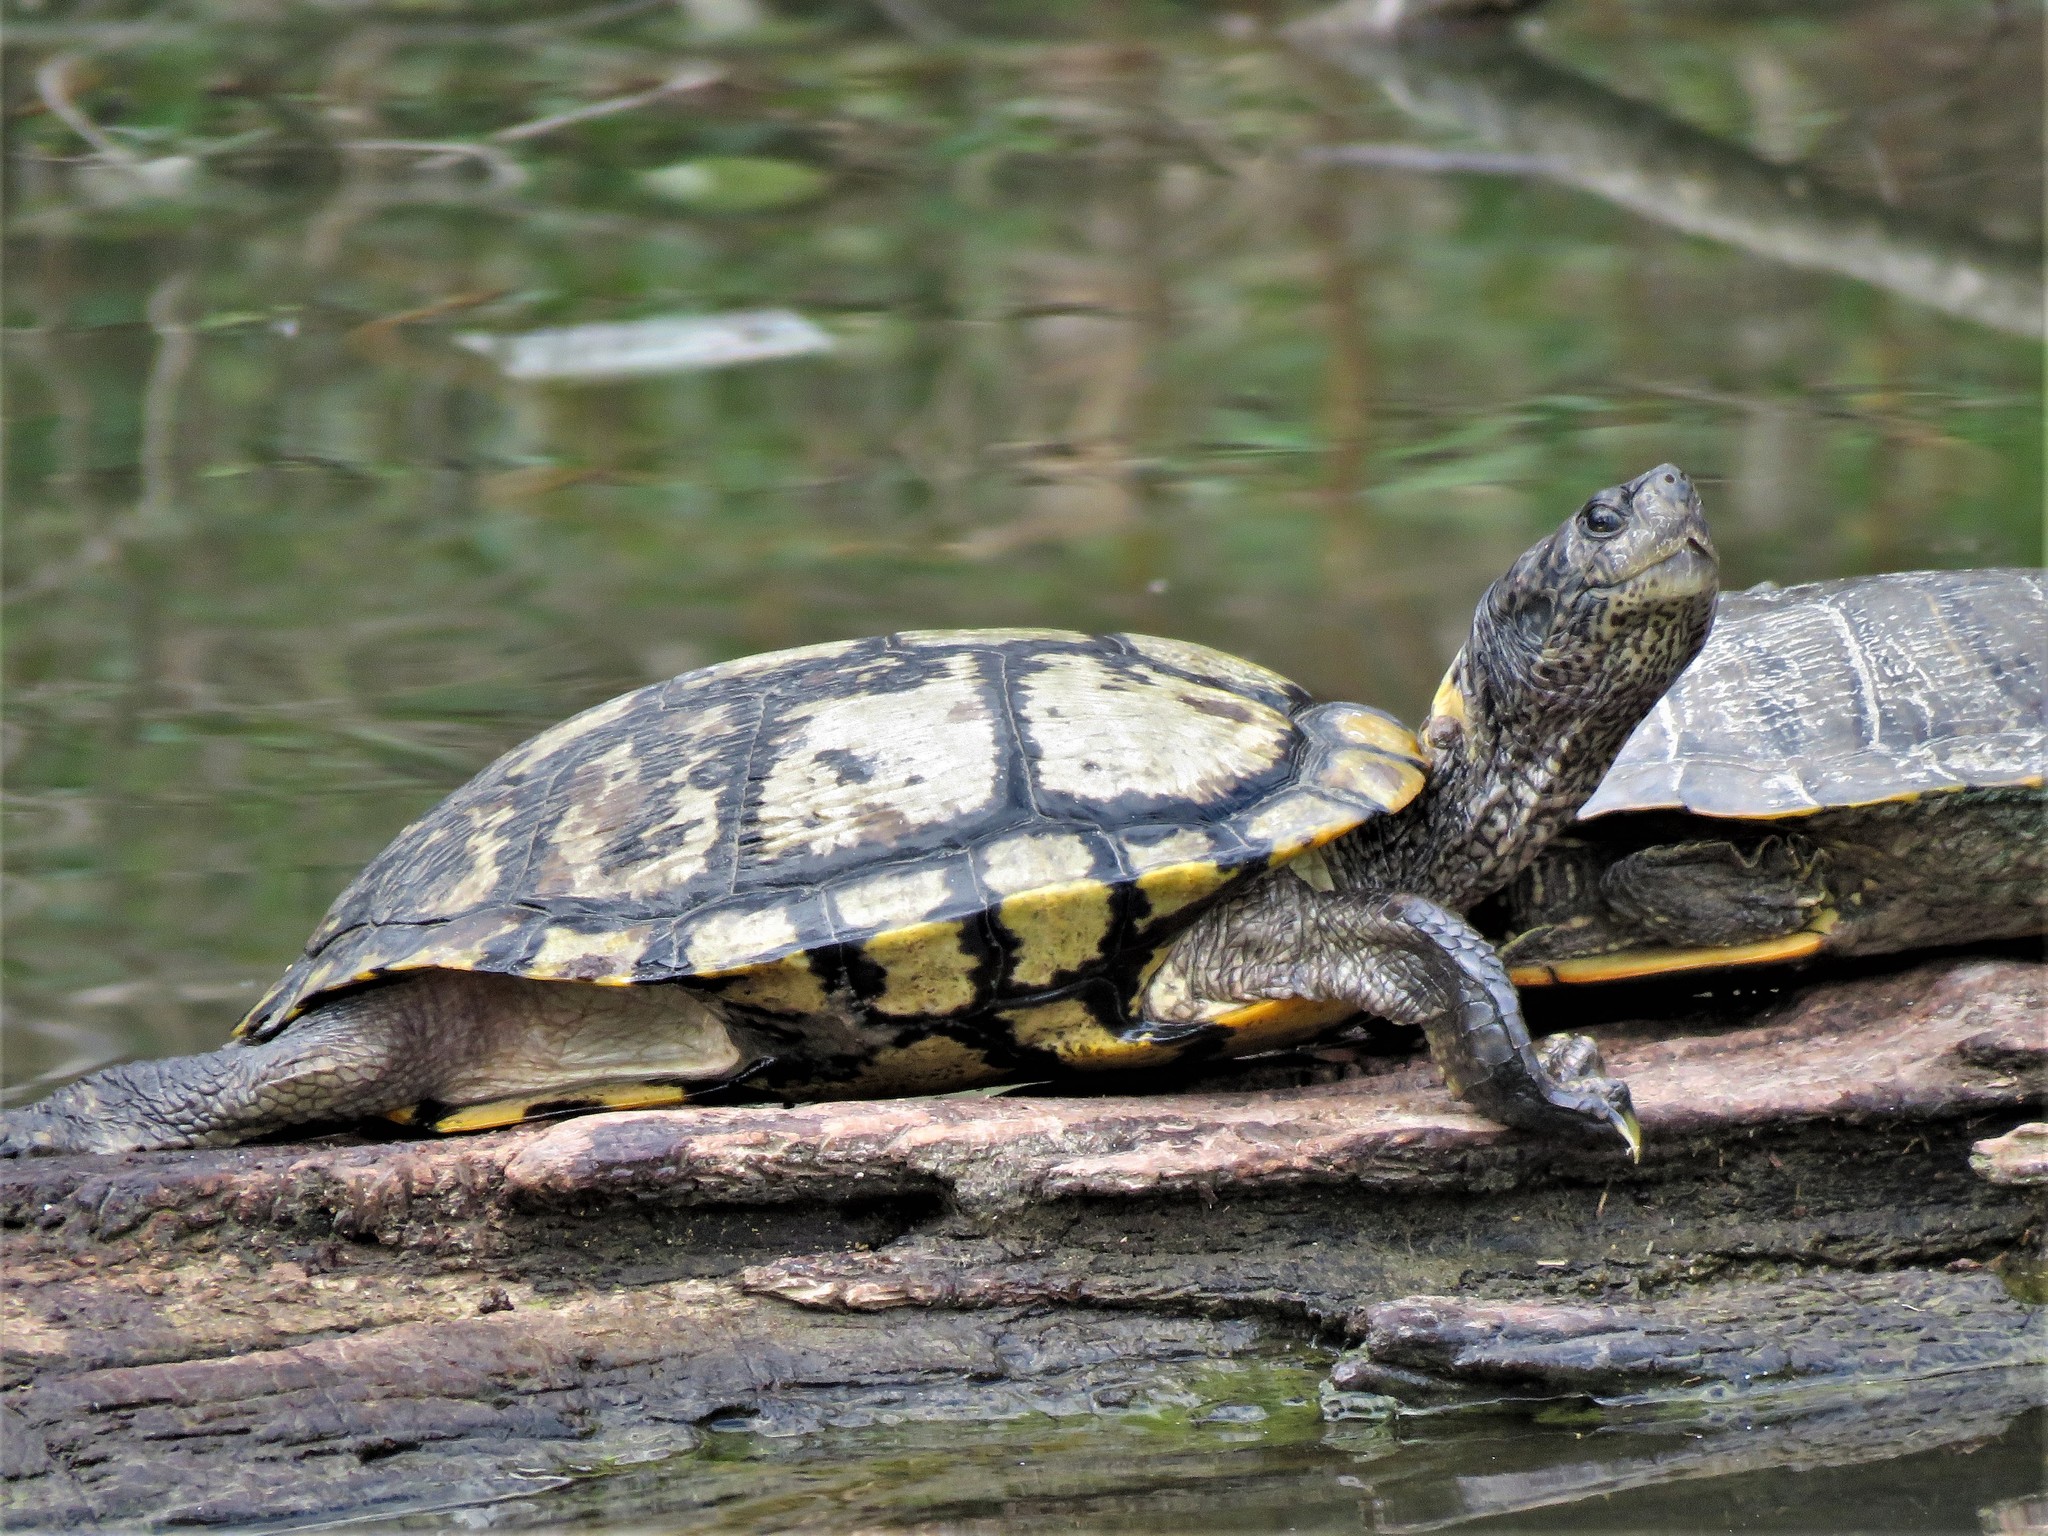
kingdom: Animalia
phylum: Chordata
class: Testudines
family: Emydidae
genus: Trachemys
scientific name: Trachemys scripta
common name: Slider
